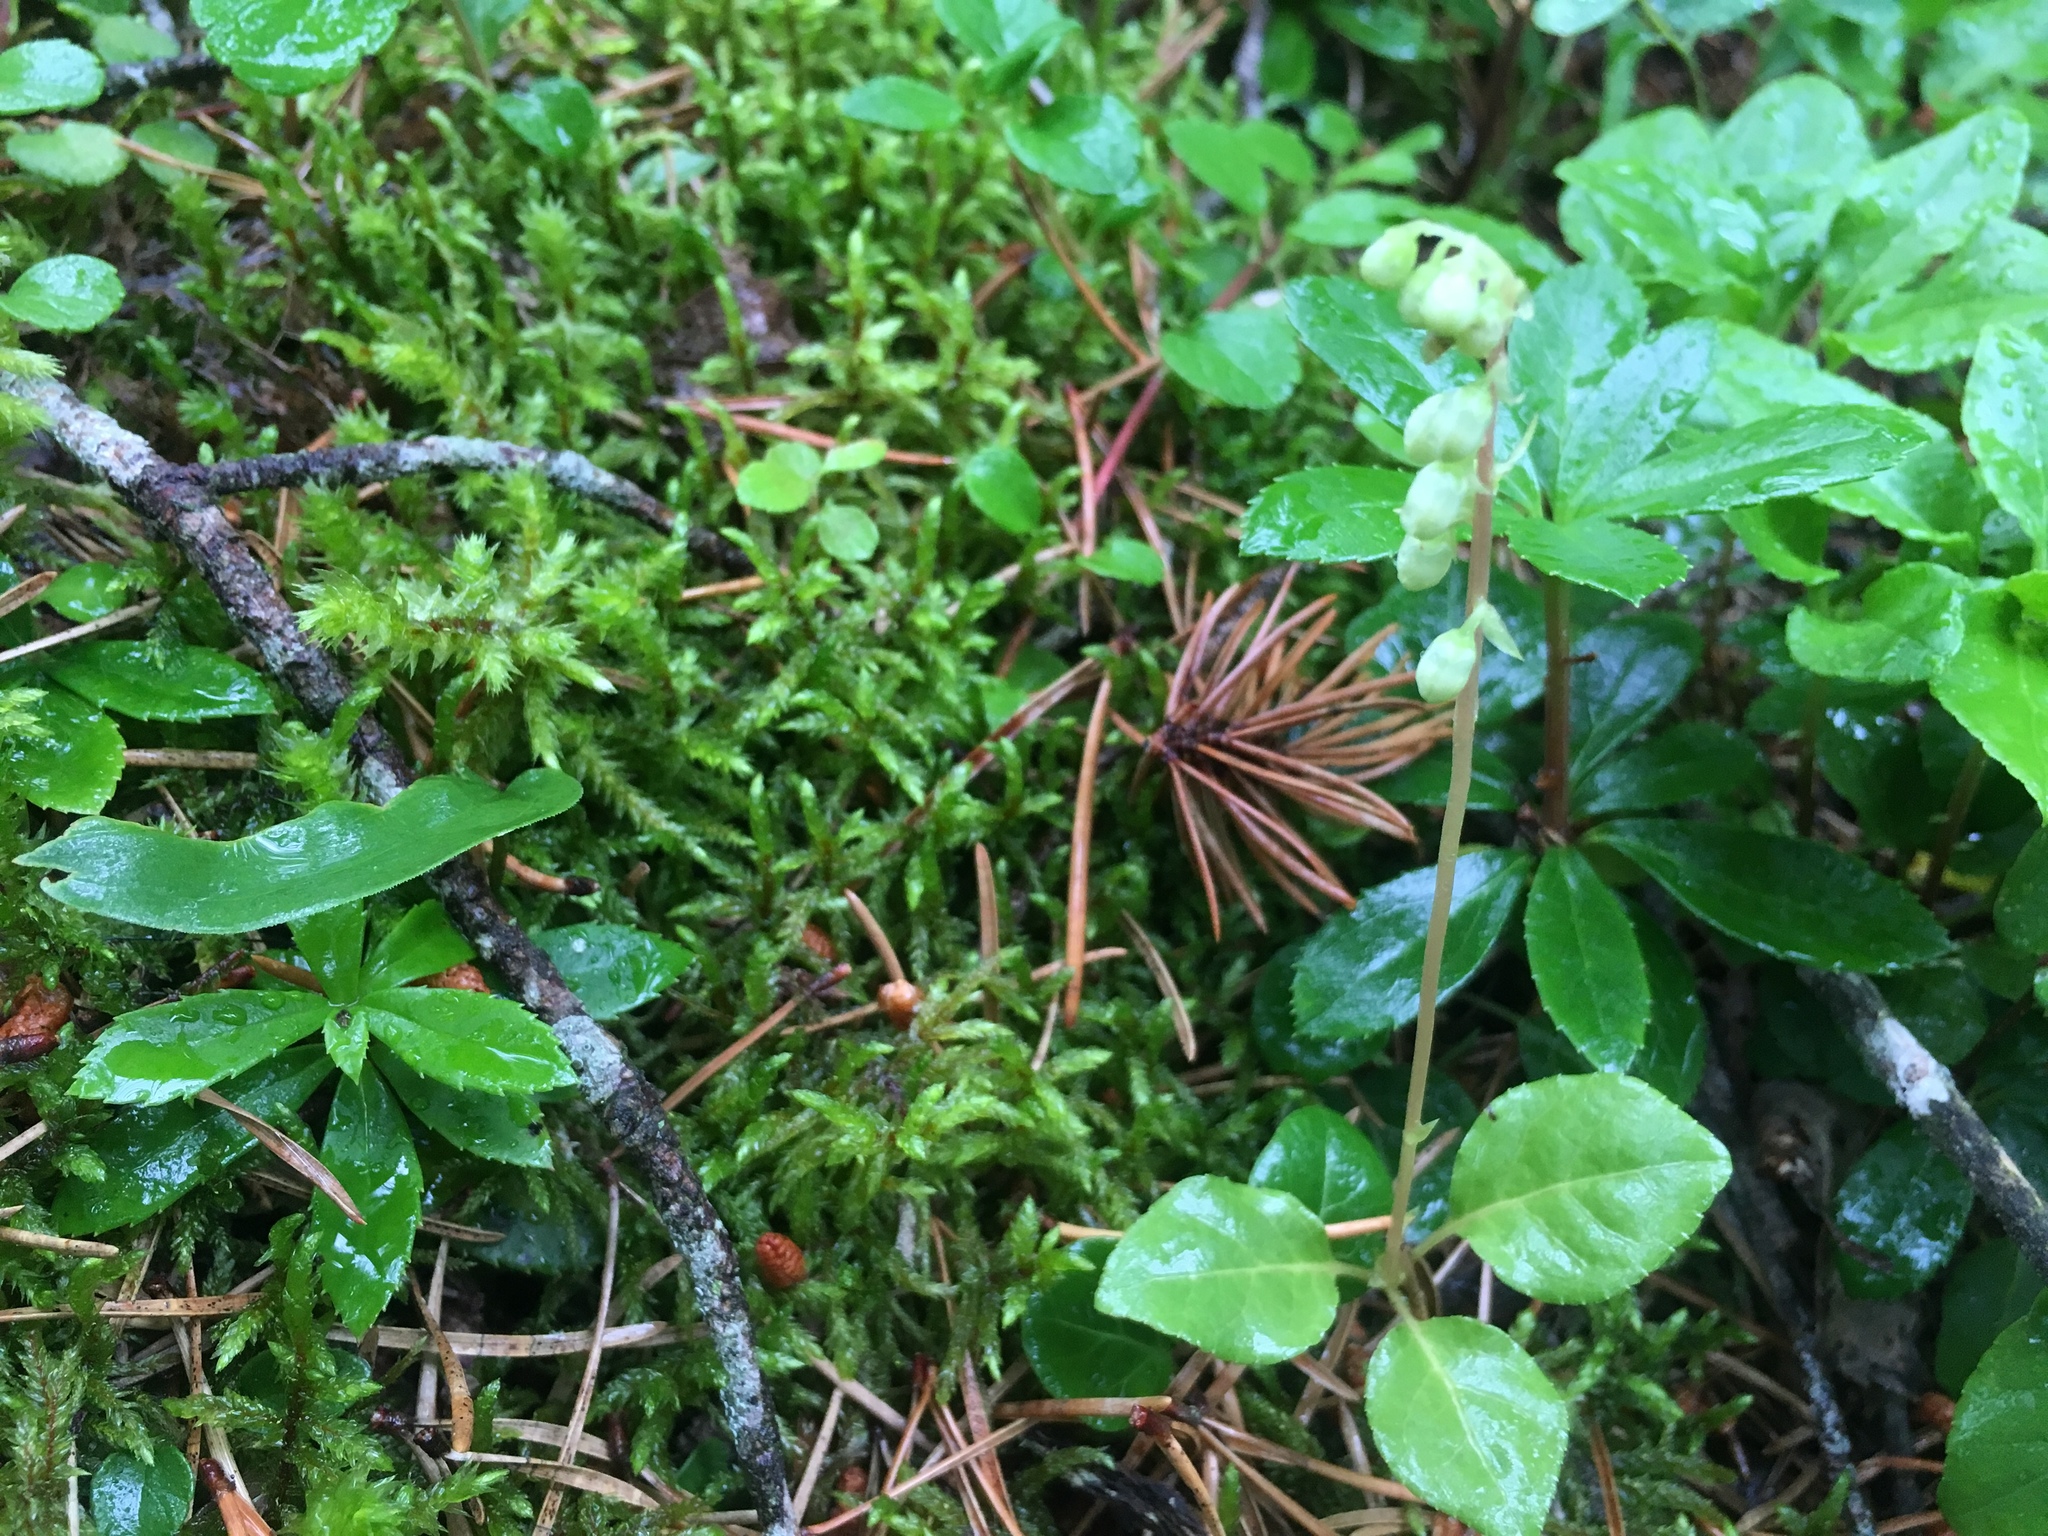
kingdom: Plantae
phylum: Tracheophyta
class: Magnoliopsida
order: Ericales
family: Ericaceae
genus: Orthilia
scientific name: Orthilia secunda
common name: One-sided orthilia
